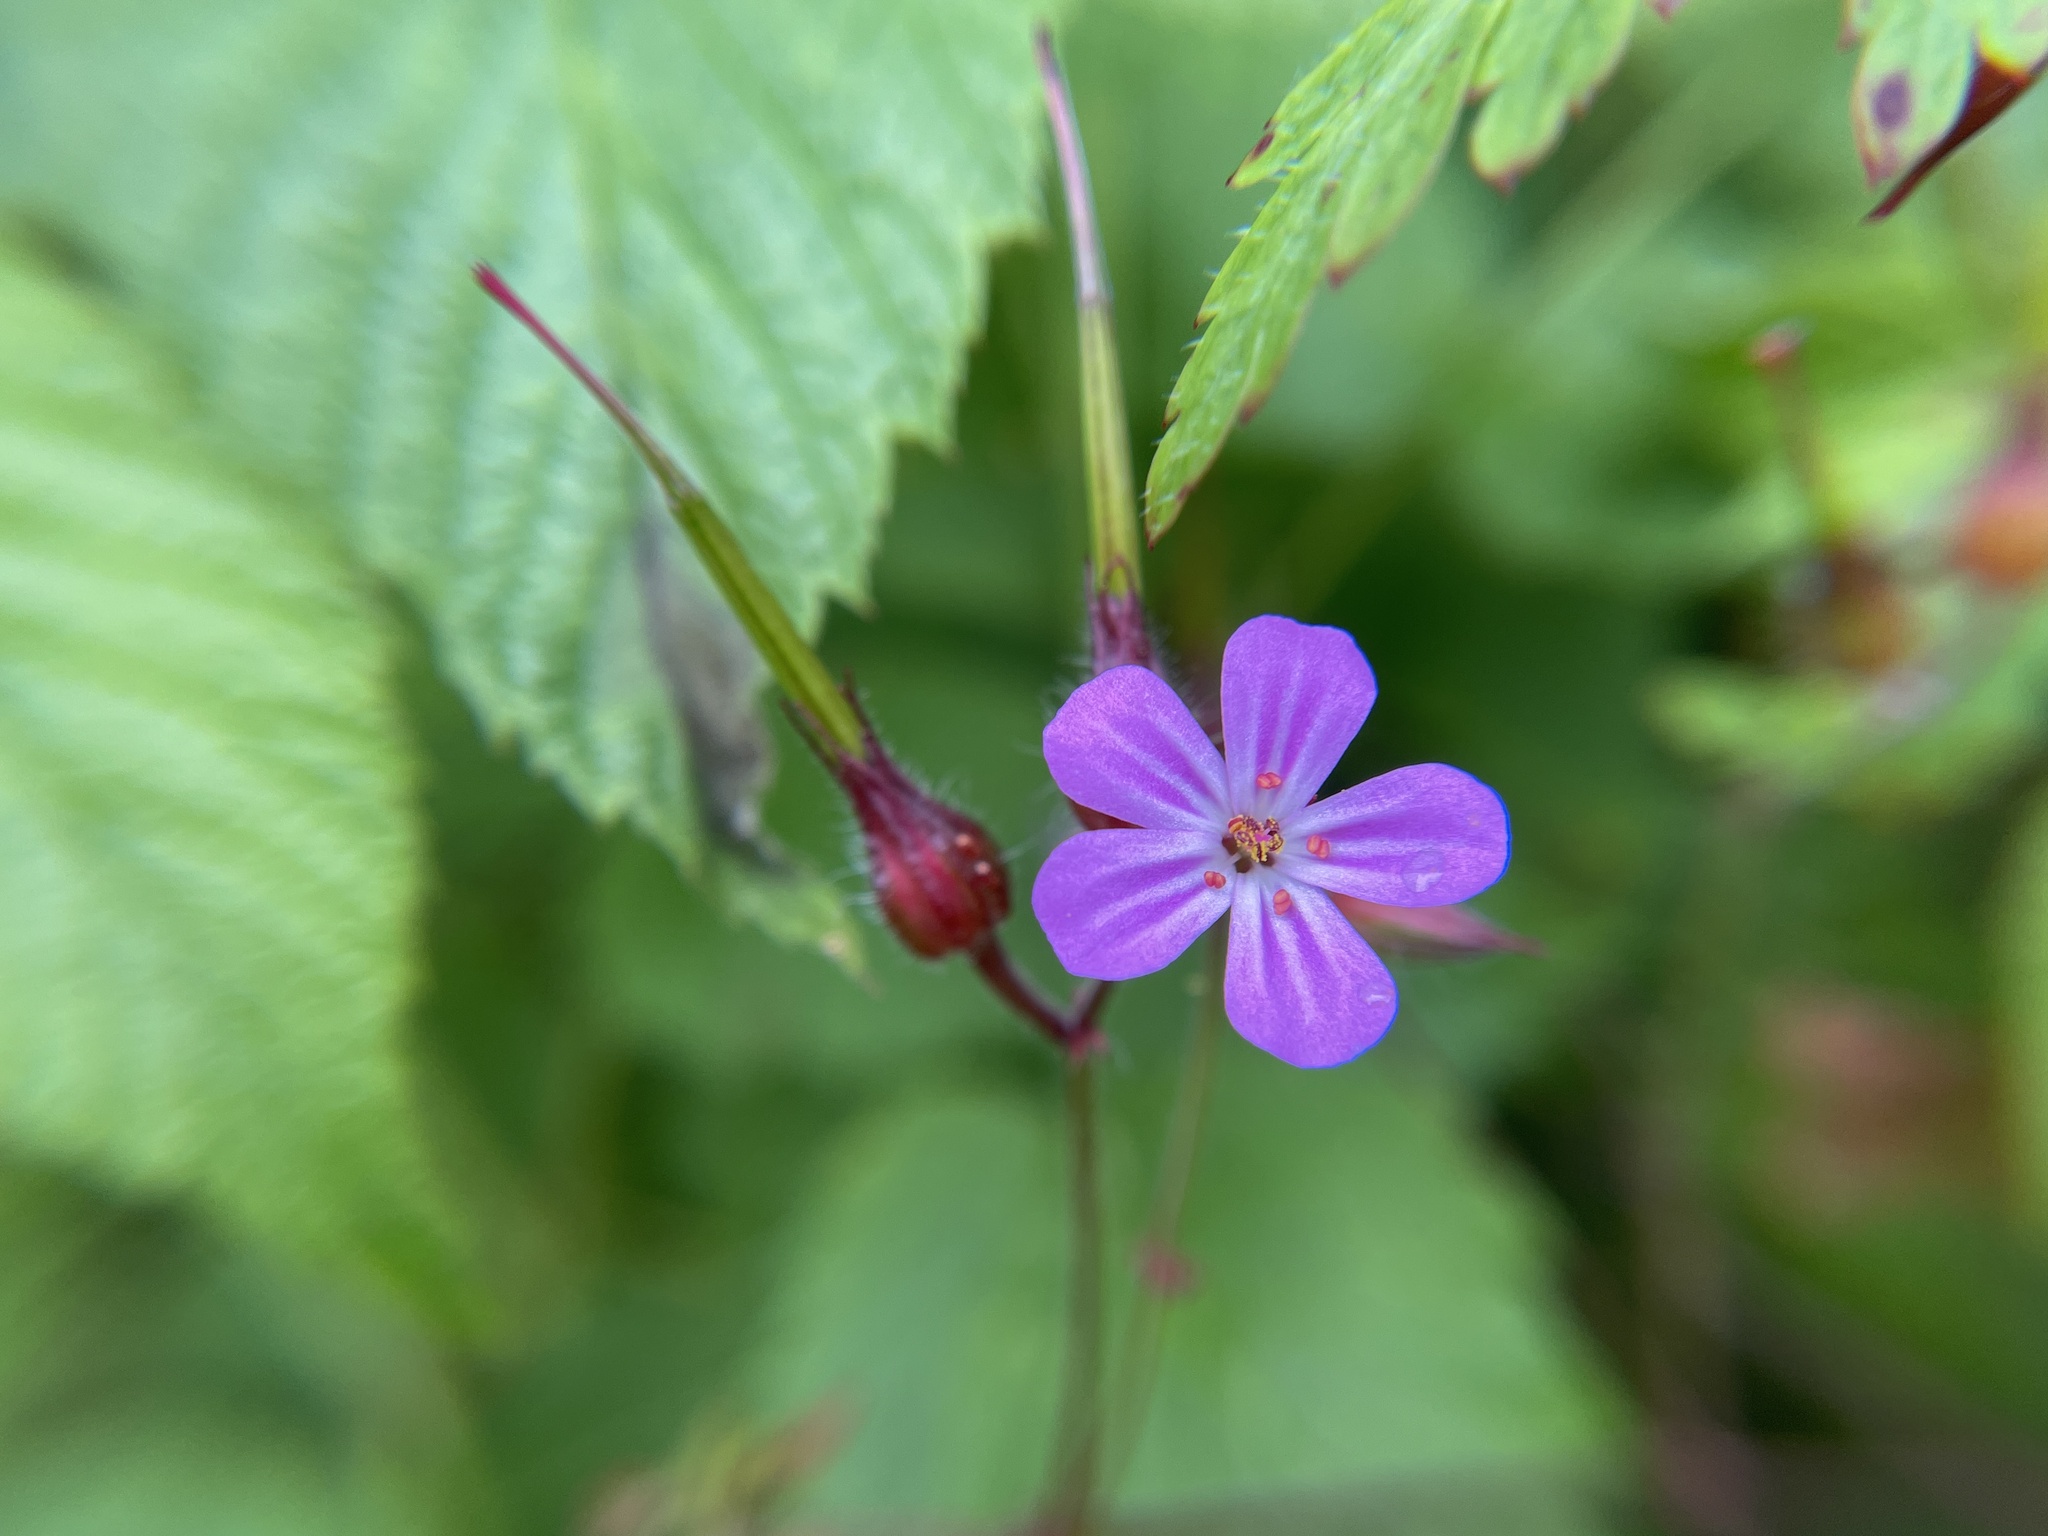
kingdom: Plantae
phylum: Tracheophyta
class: Magnoliopsida
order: Geraniales
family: Geraniaceae
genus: Geranium
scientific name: Geranium robertianum
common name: Herb-robert
